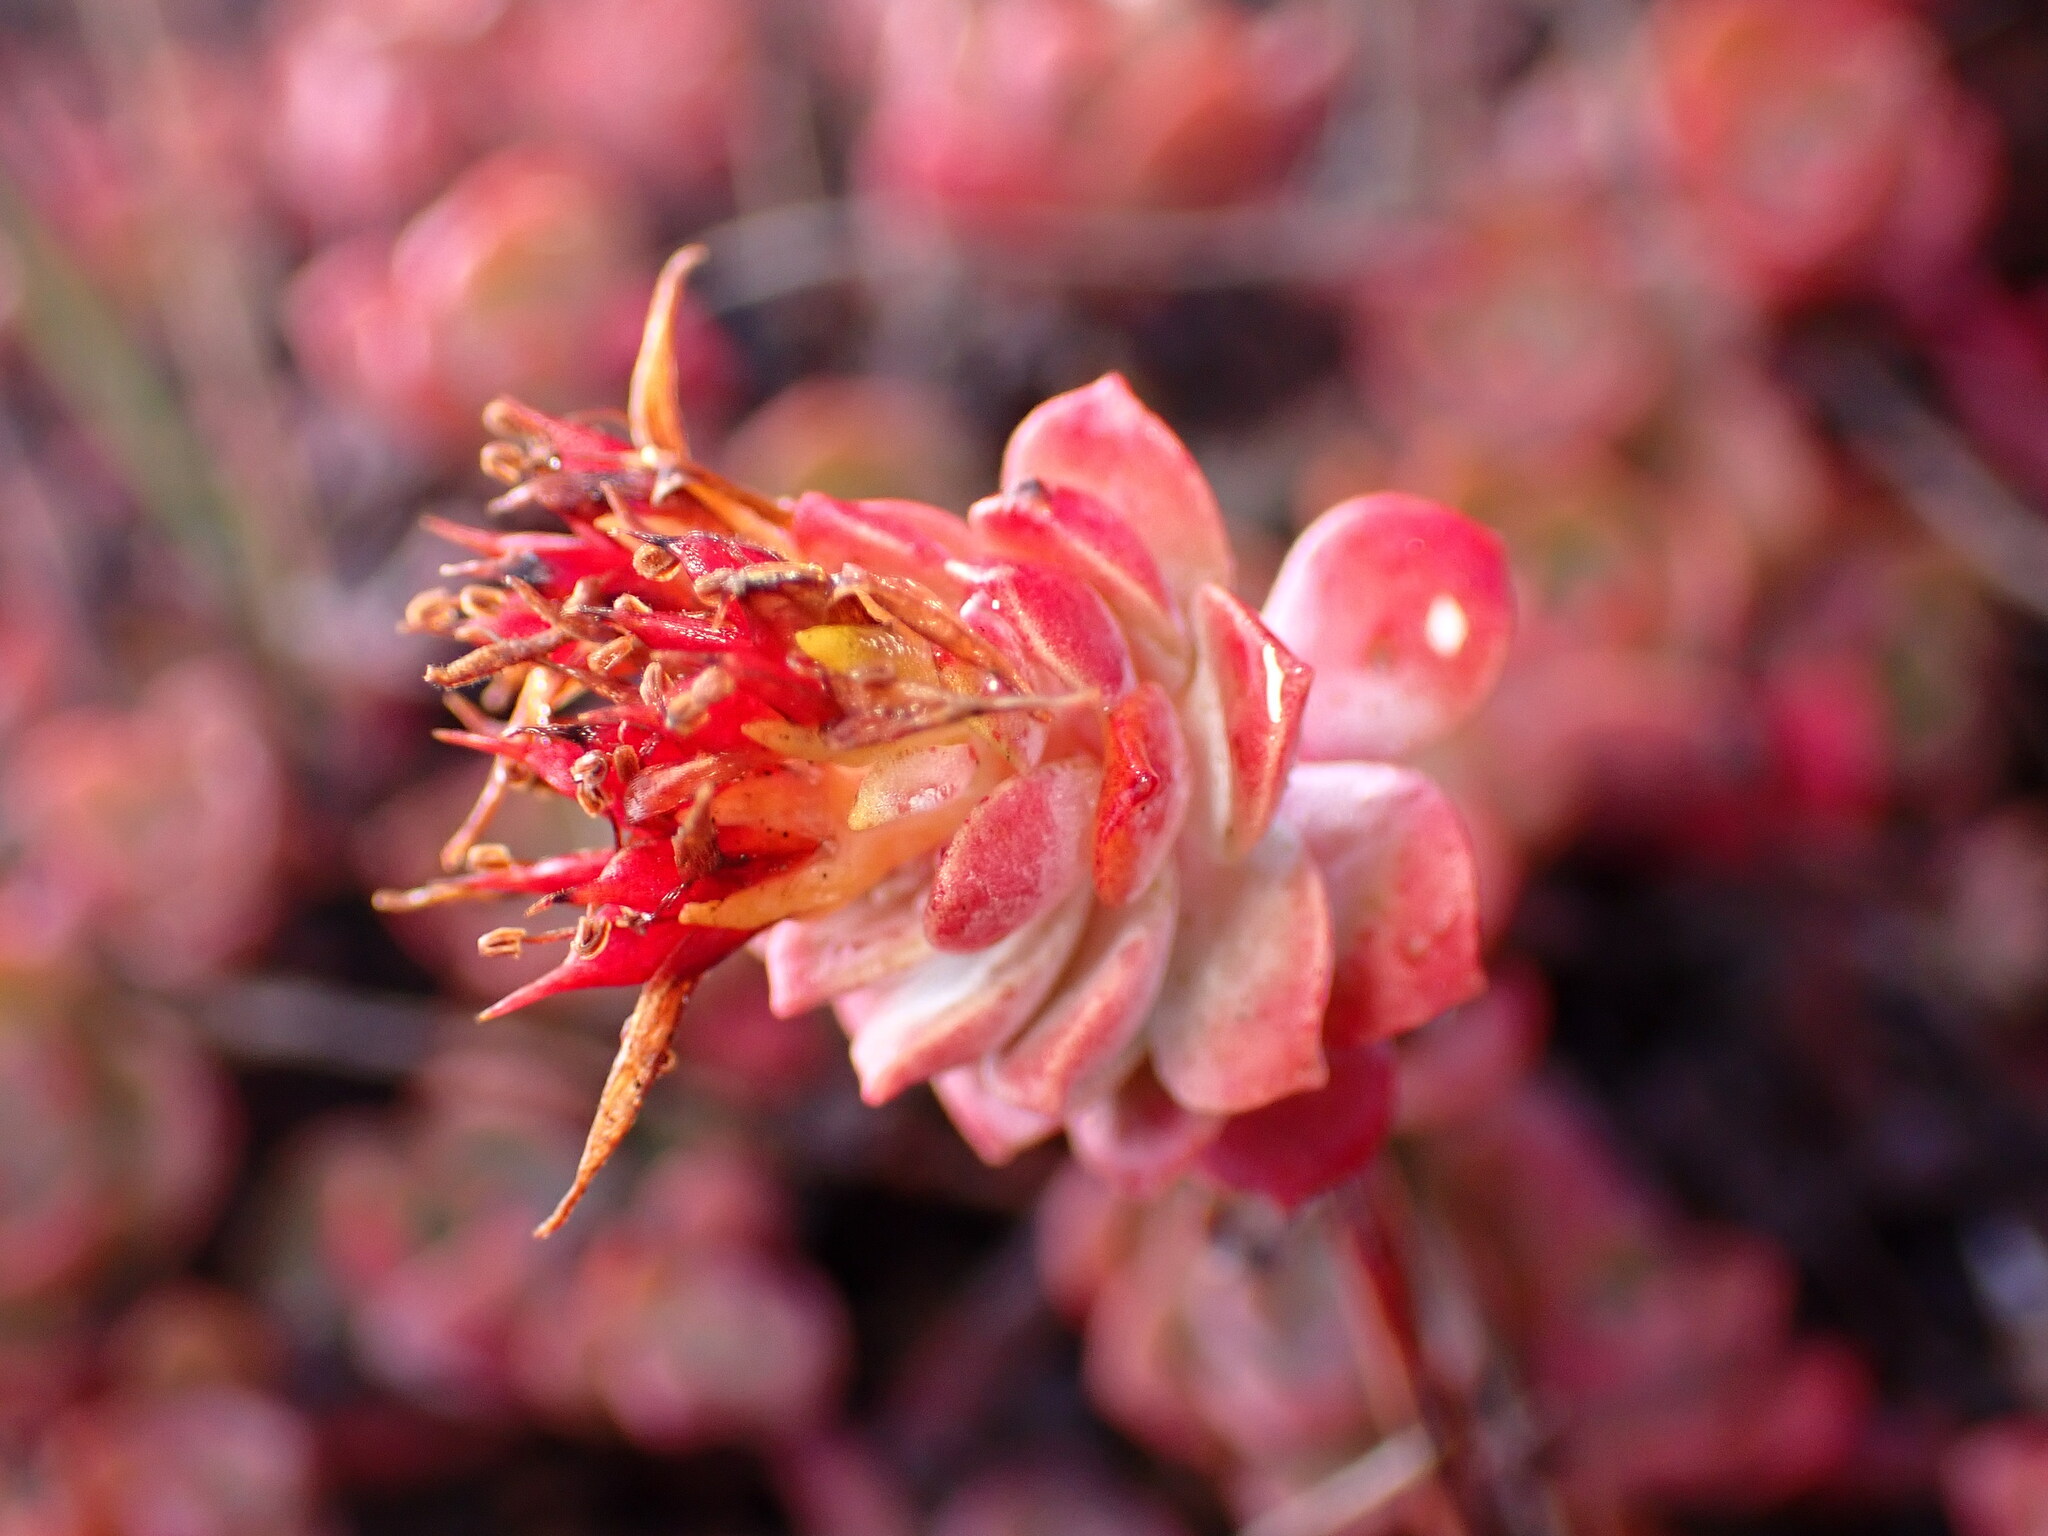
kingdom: Plantae
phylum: Tracheophyta
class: Magnoliopsida
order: Saxifragales
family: Crassulaceae
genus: Sedum
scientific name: Sedum spathulifolium
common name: Colorado stonecrop
